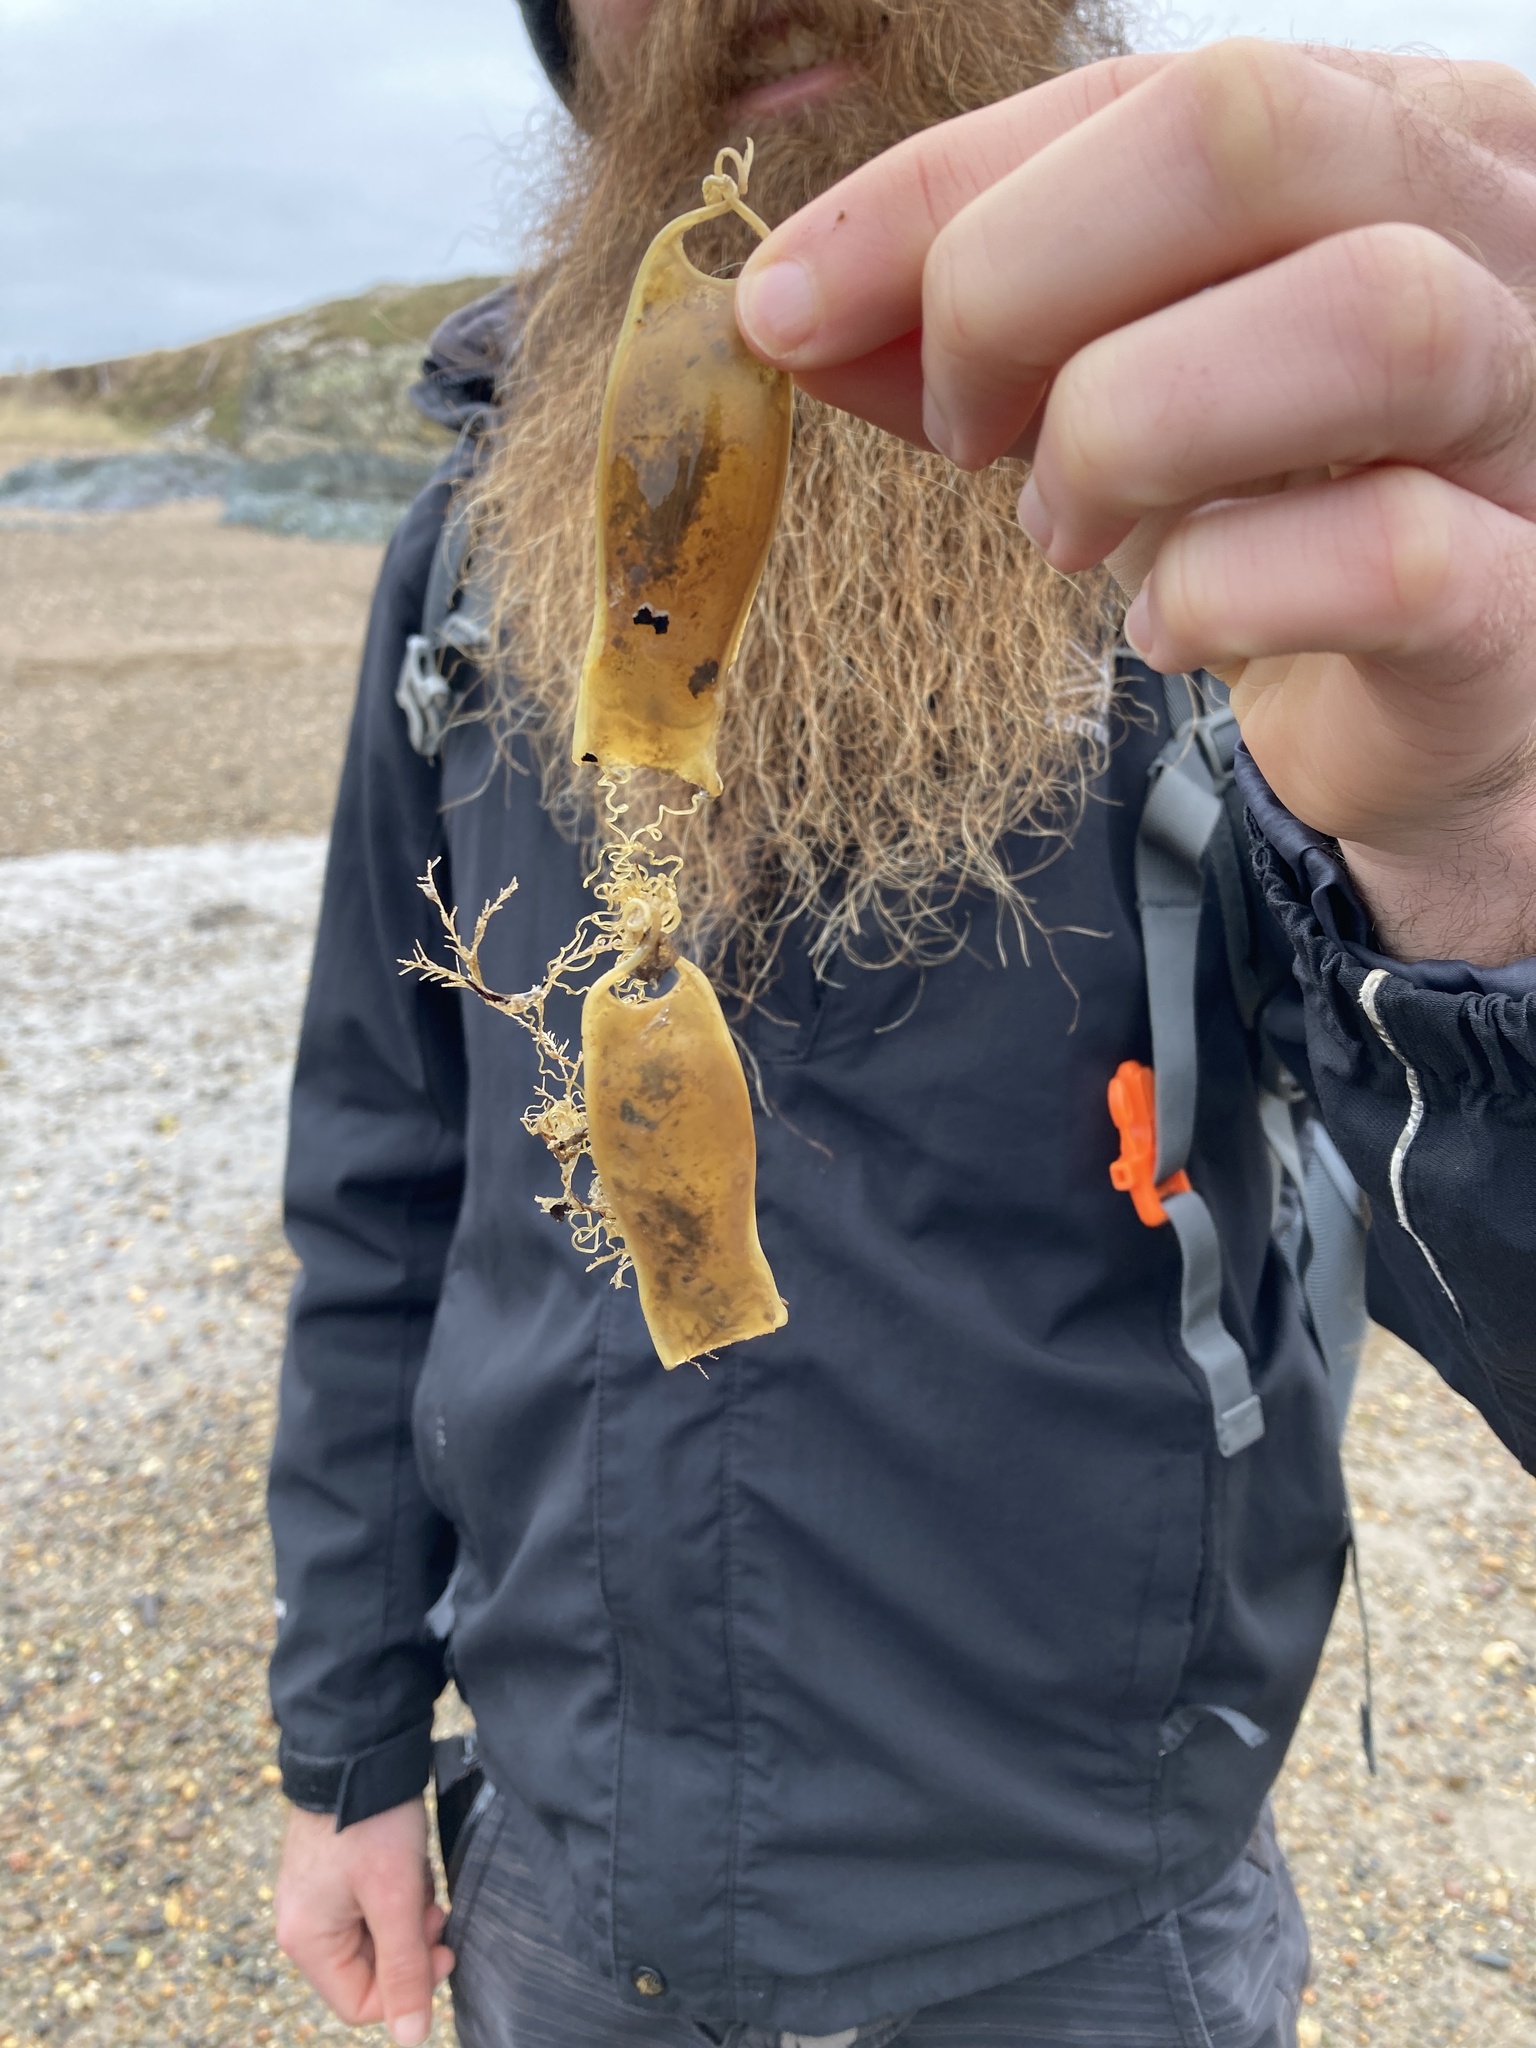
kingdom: Animalia
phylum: Chordata
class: Elasmobranchii
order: Carcharhiniformes
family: Scyliorhinidae
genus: Scyliorhinus
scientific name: Scyliorhinus canicula
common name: Lesser spotted dogfish
